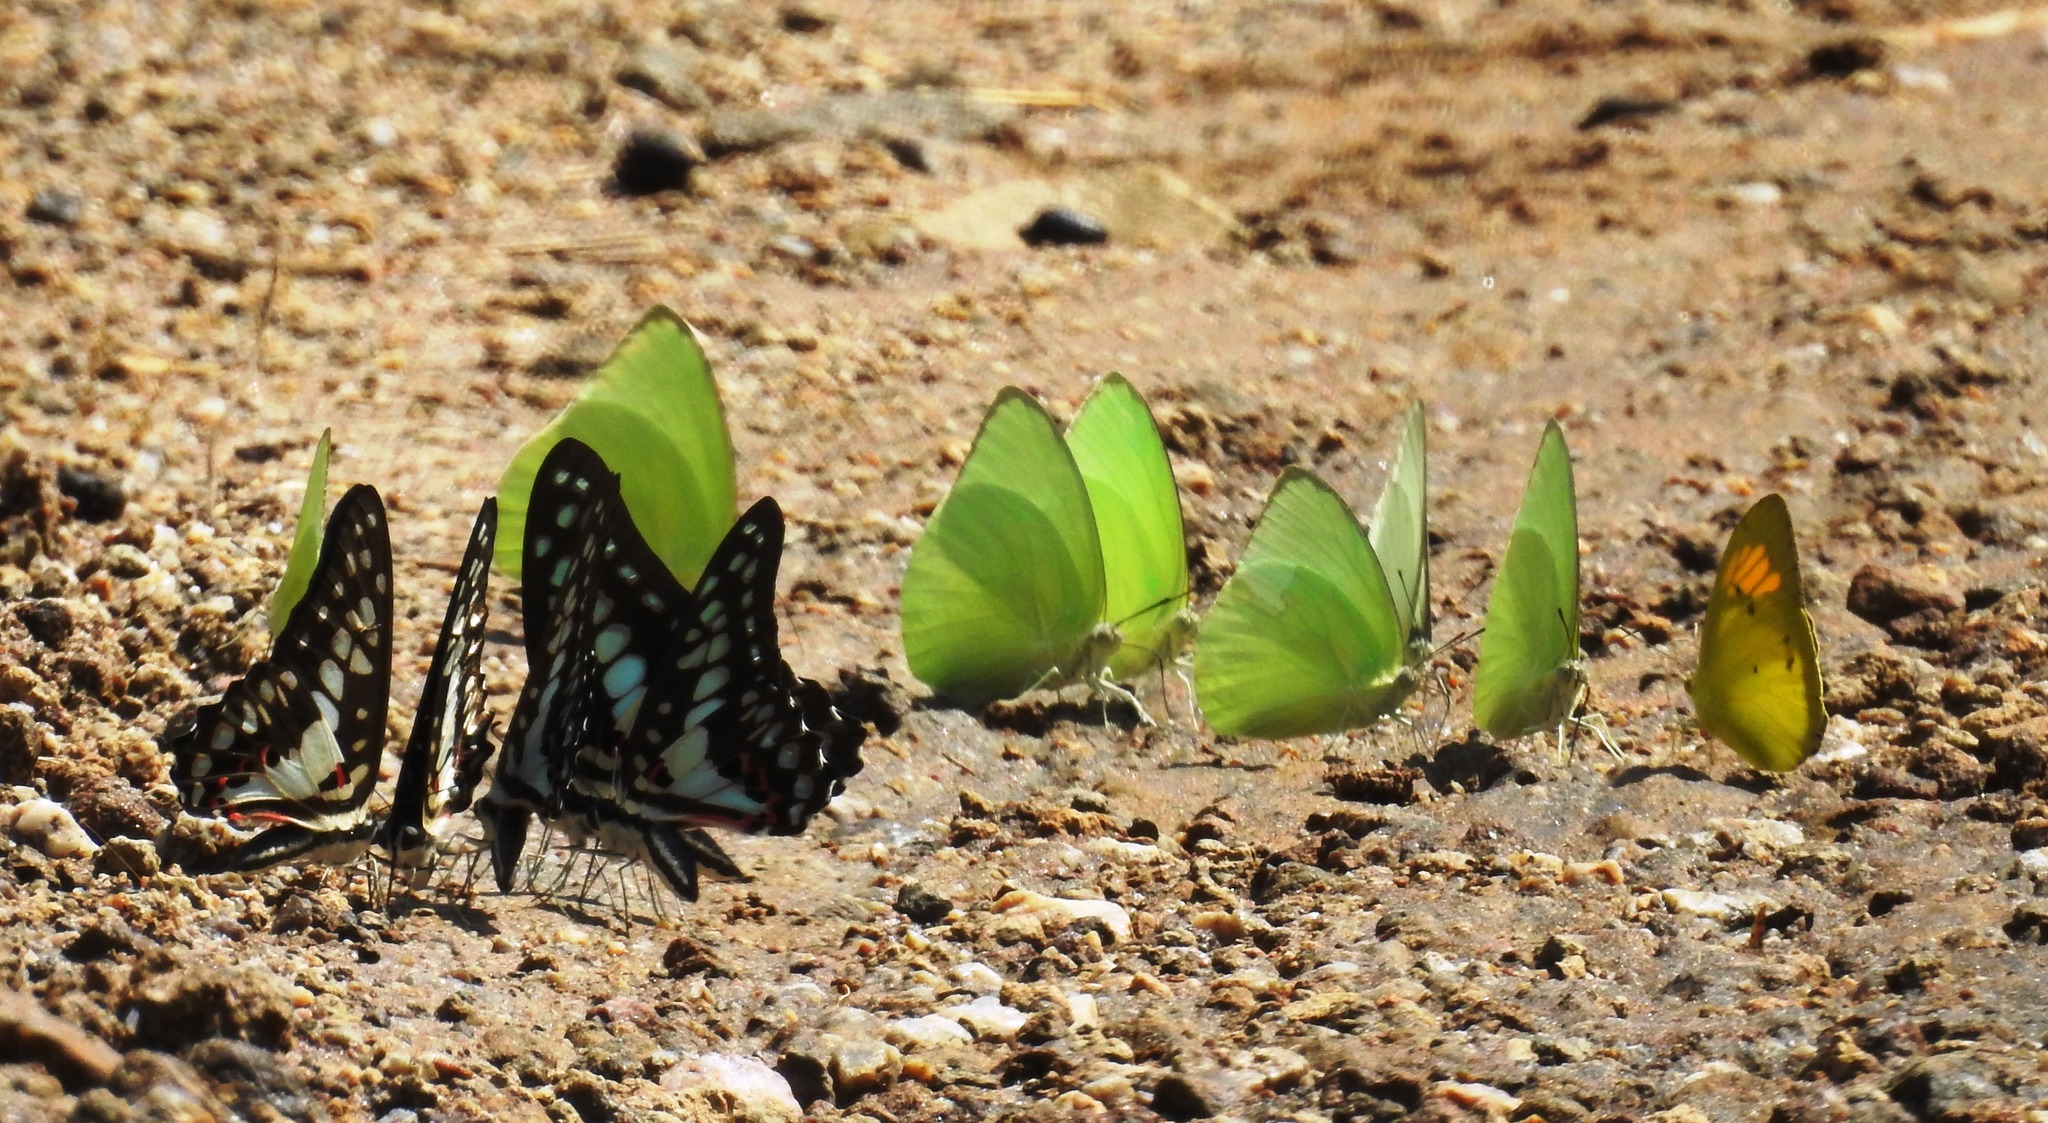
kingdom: Animalia
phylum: Arthropoda
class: Insecta
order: Lepidoptera
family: Papilionidae
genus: Graphium
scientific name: Graphium doson
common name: Common jay
